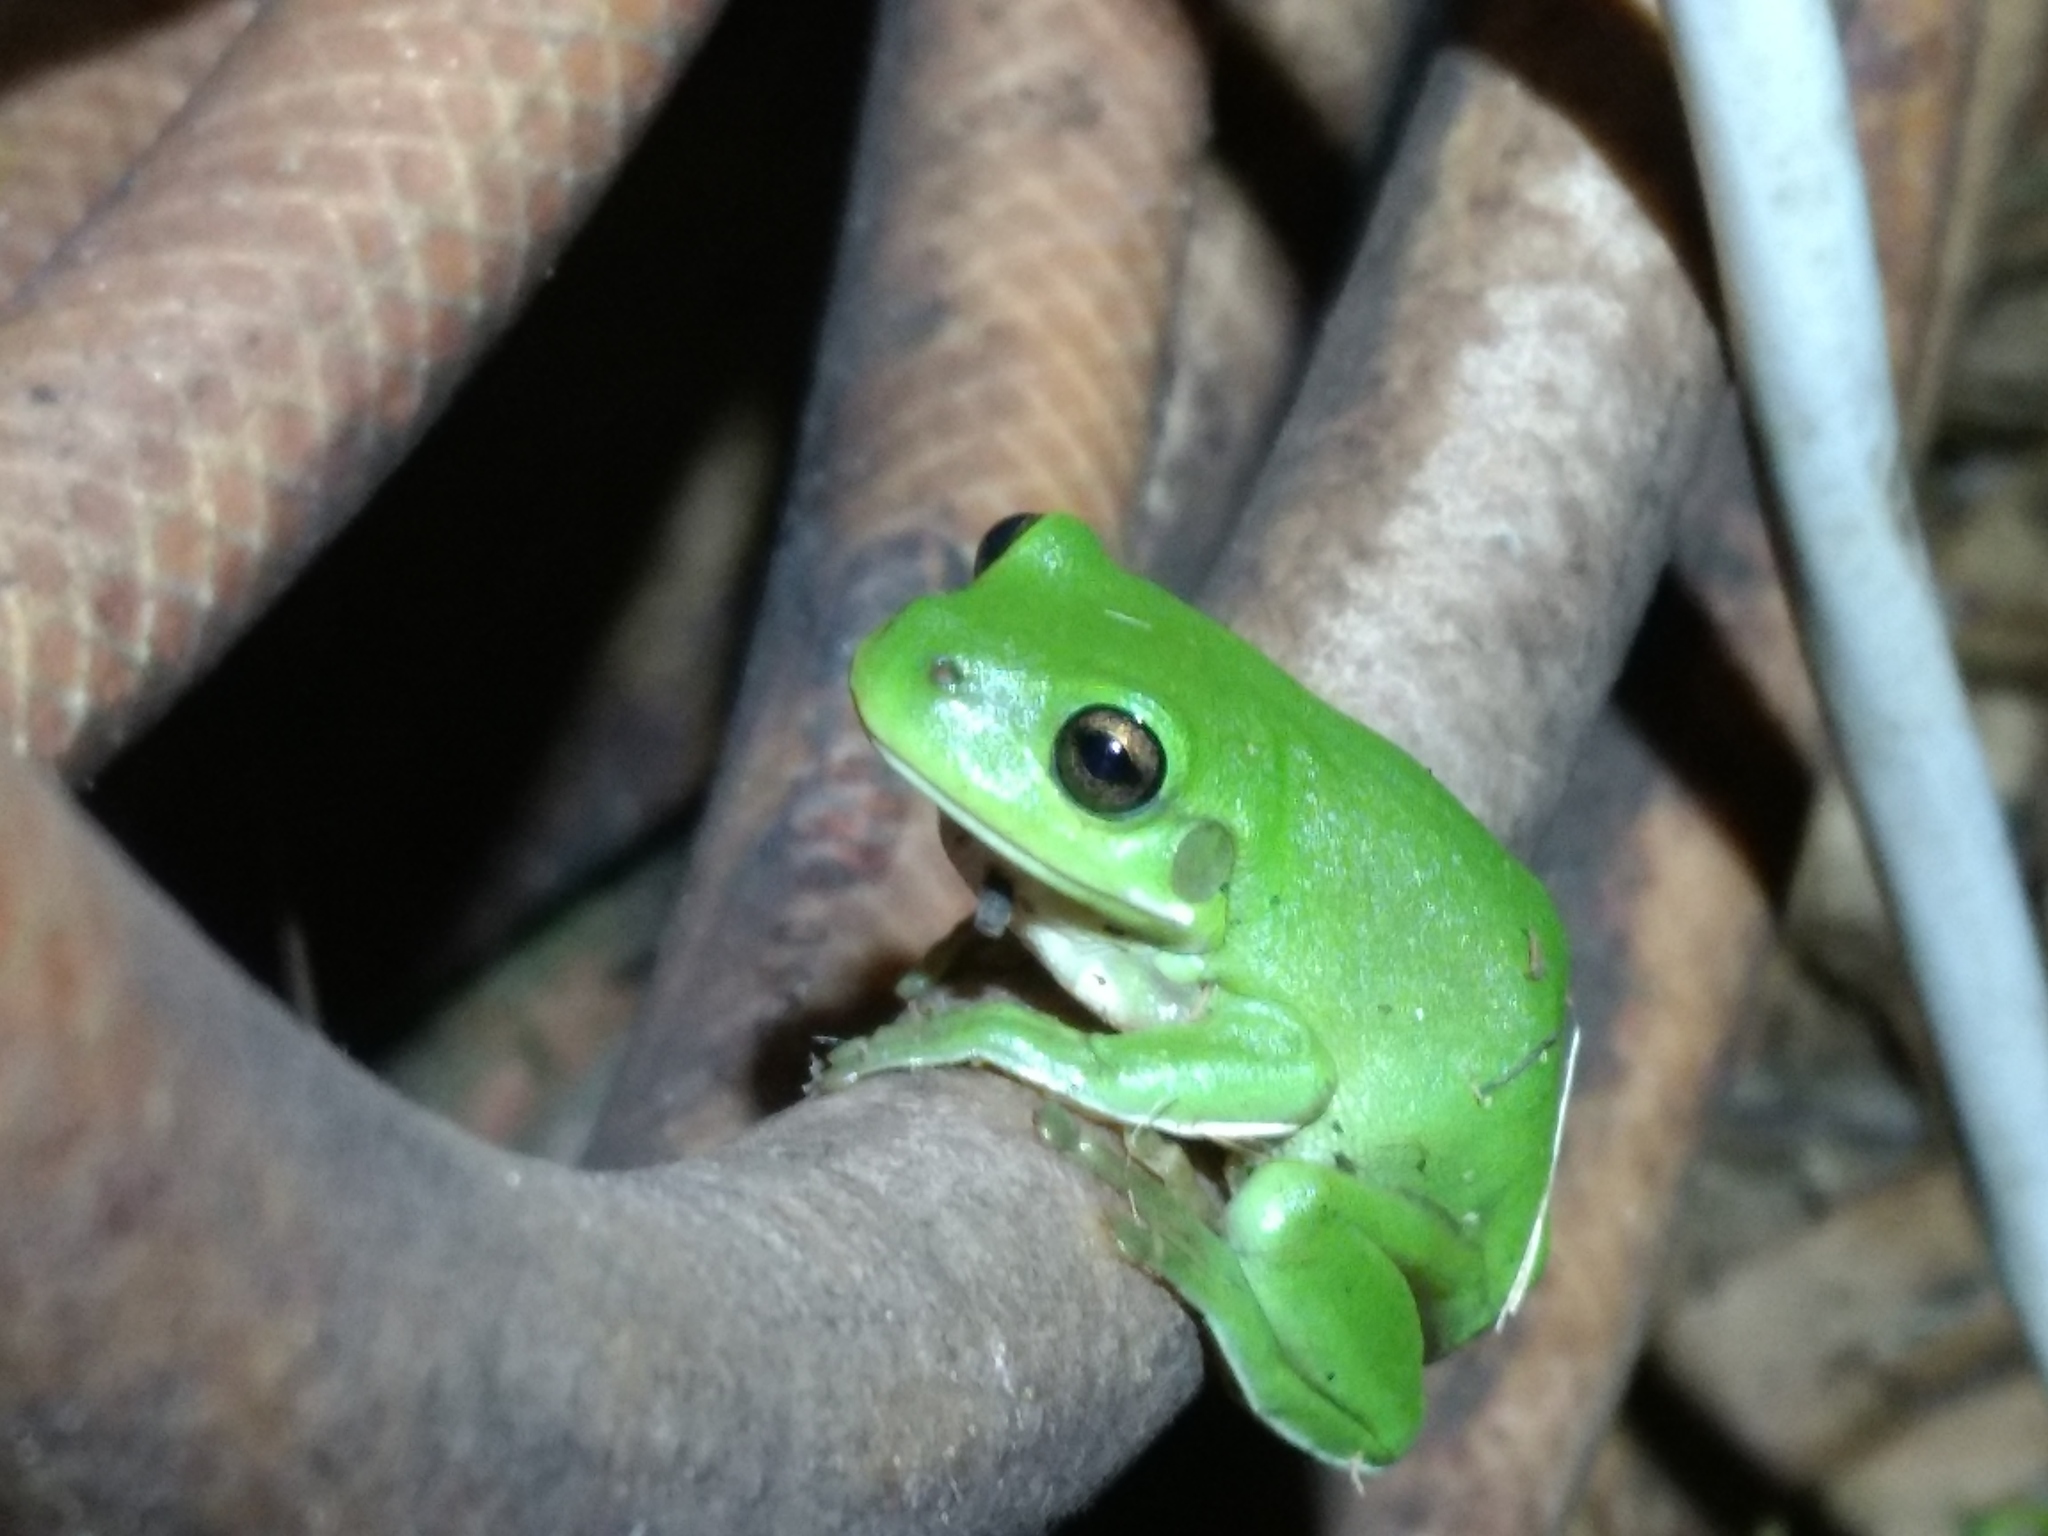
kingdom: Animalia
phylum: Chordata
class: Amphibia
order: Anura
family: Pelodryadidae
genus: Ranoidea
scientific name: Ranoidea caerulea
